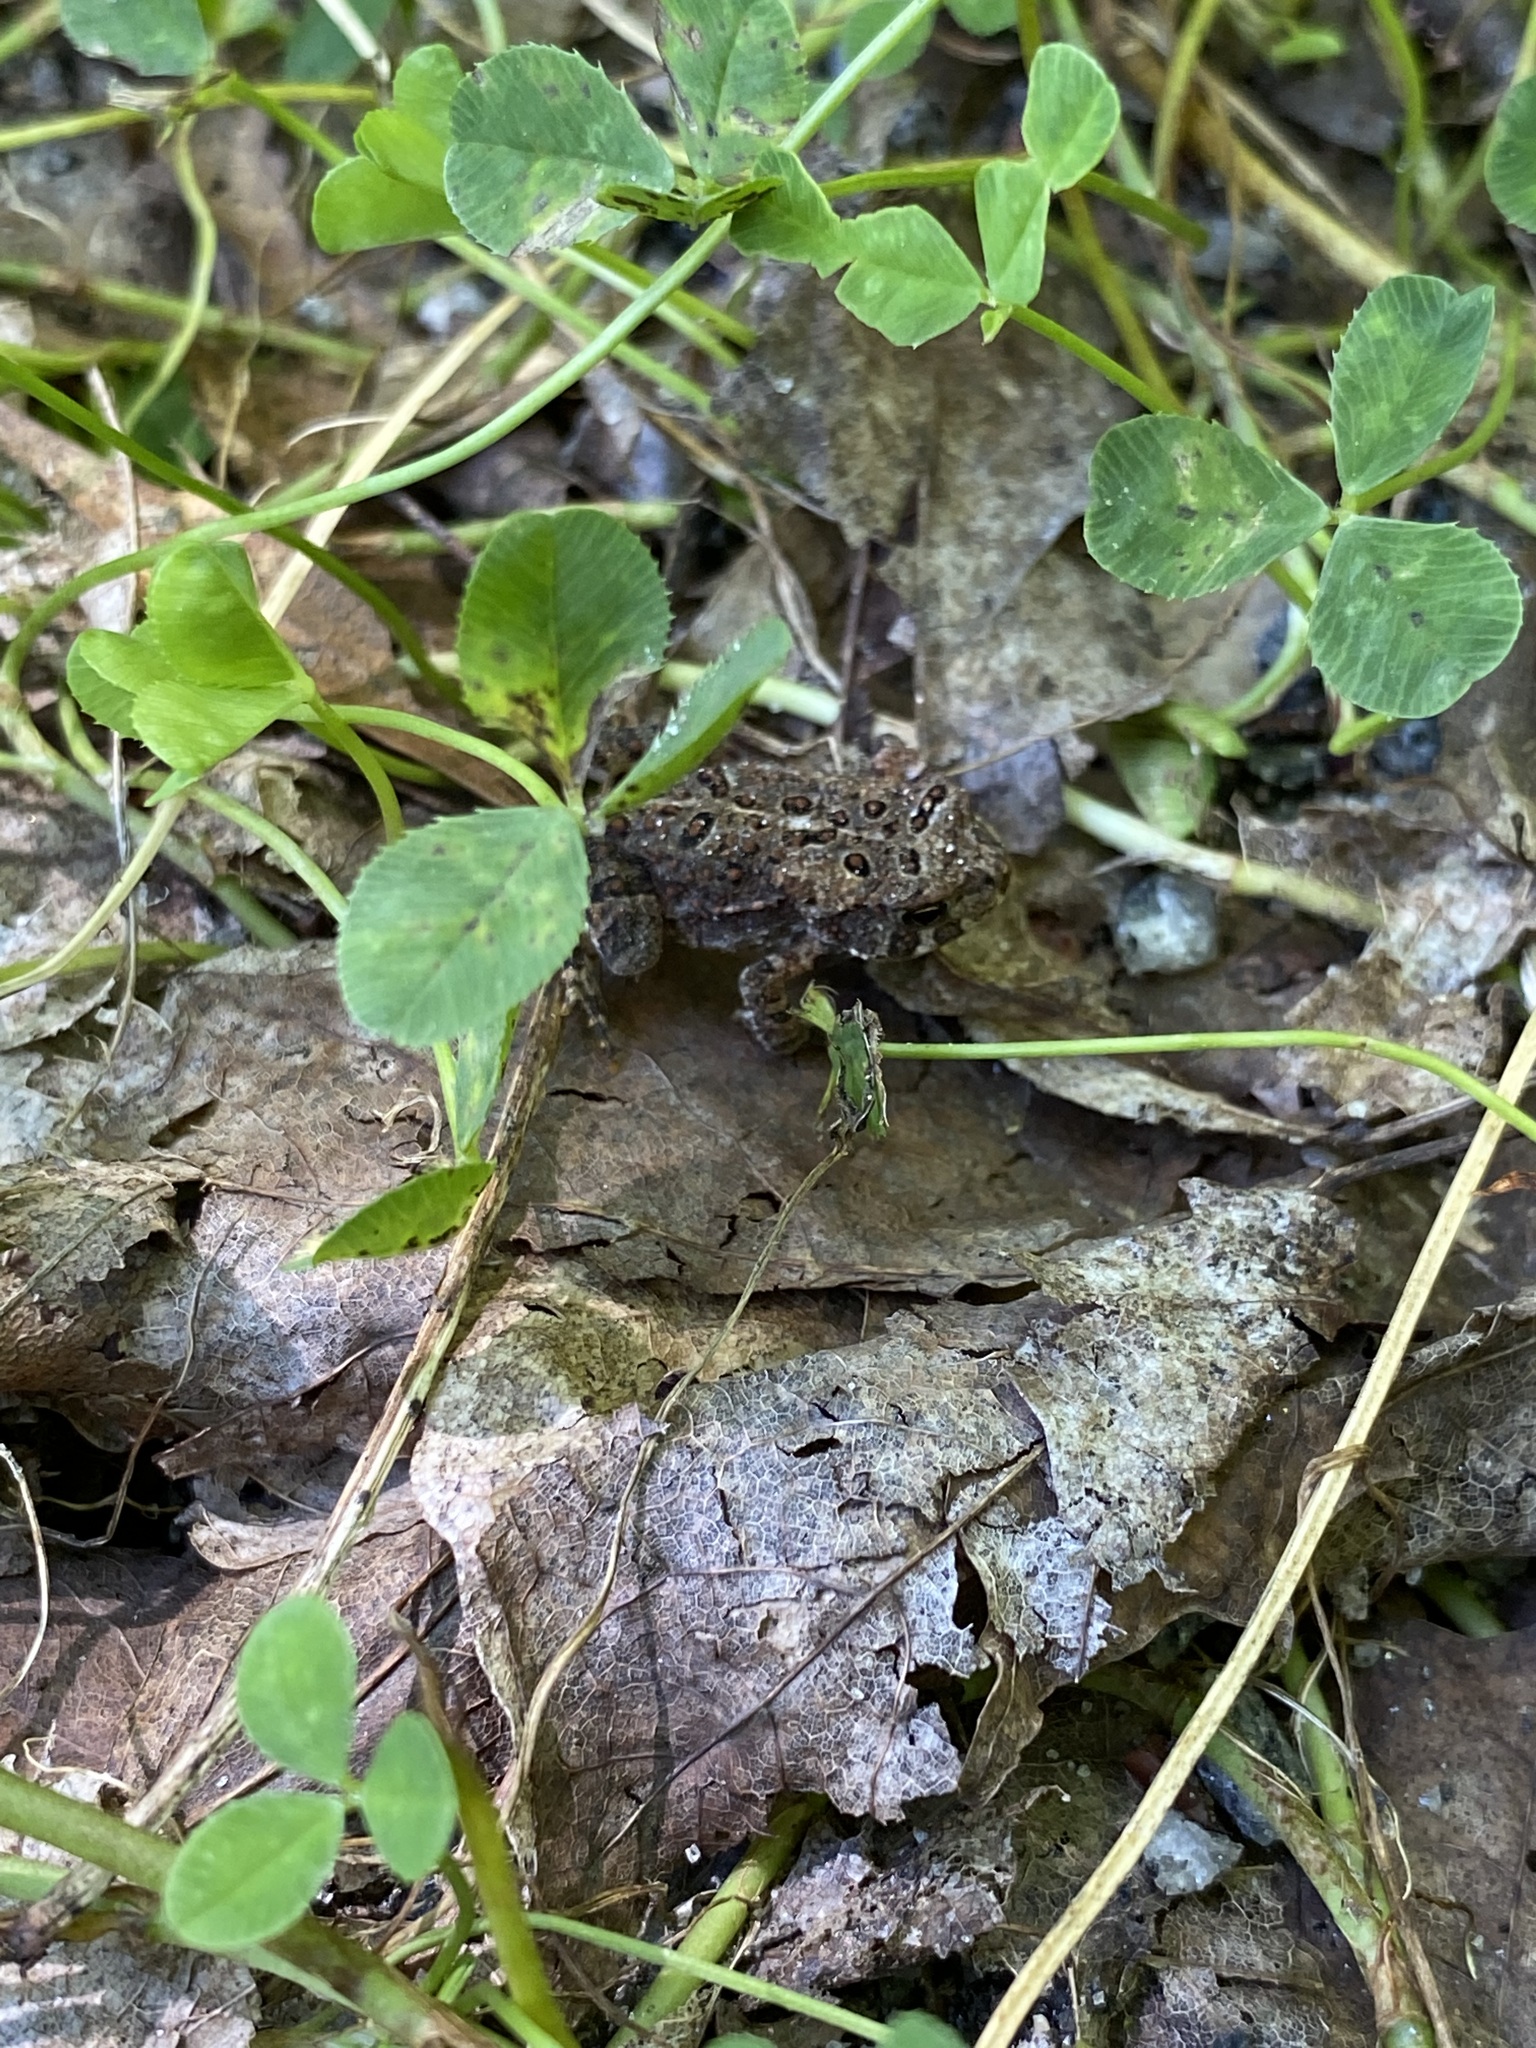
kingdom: Animalia
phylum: Chordata
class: Amphibia
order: Anura
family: Bufonidae
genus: Anaxyrus
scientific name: Anaxyrus americanus
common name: American toad
